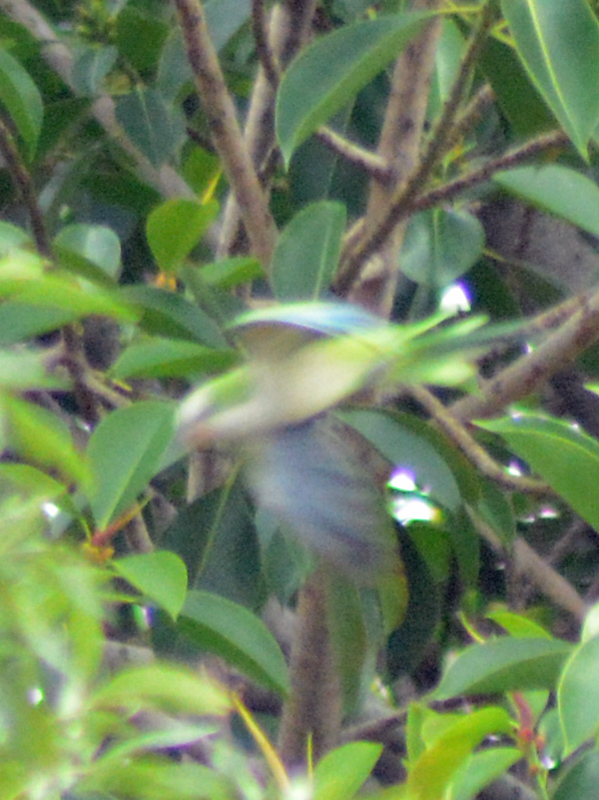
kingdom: Animalia
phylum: Chordata
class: Aves
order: Psittaciformes
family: Psittacidae
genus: Myiopsitta
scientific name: Myiopsitta monachus
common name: Monk parakeet
